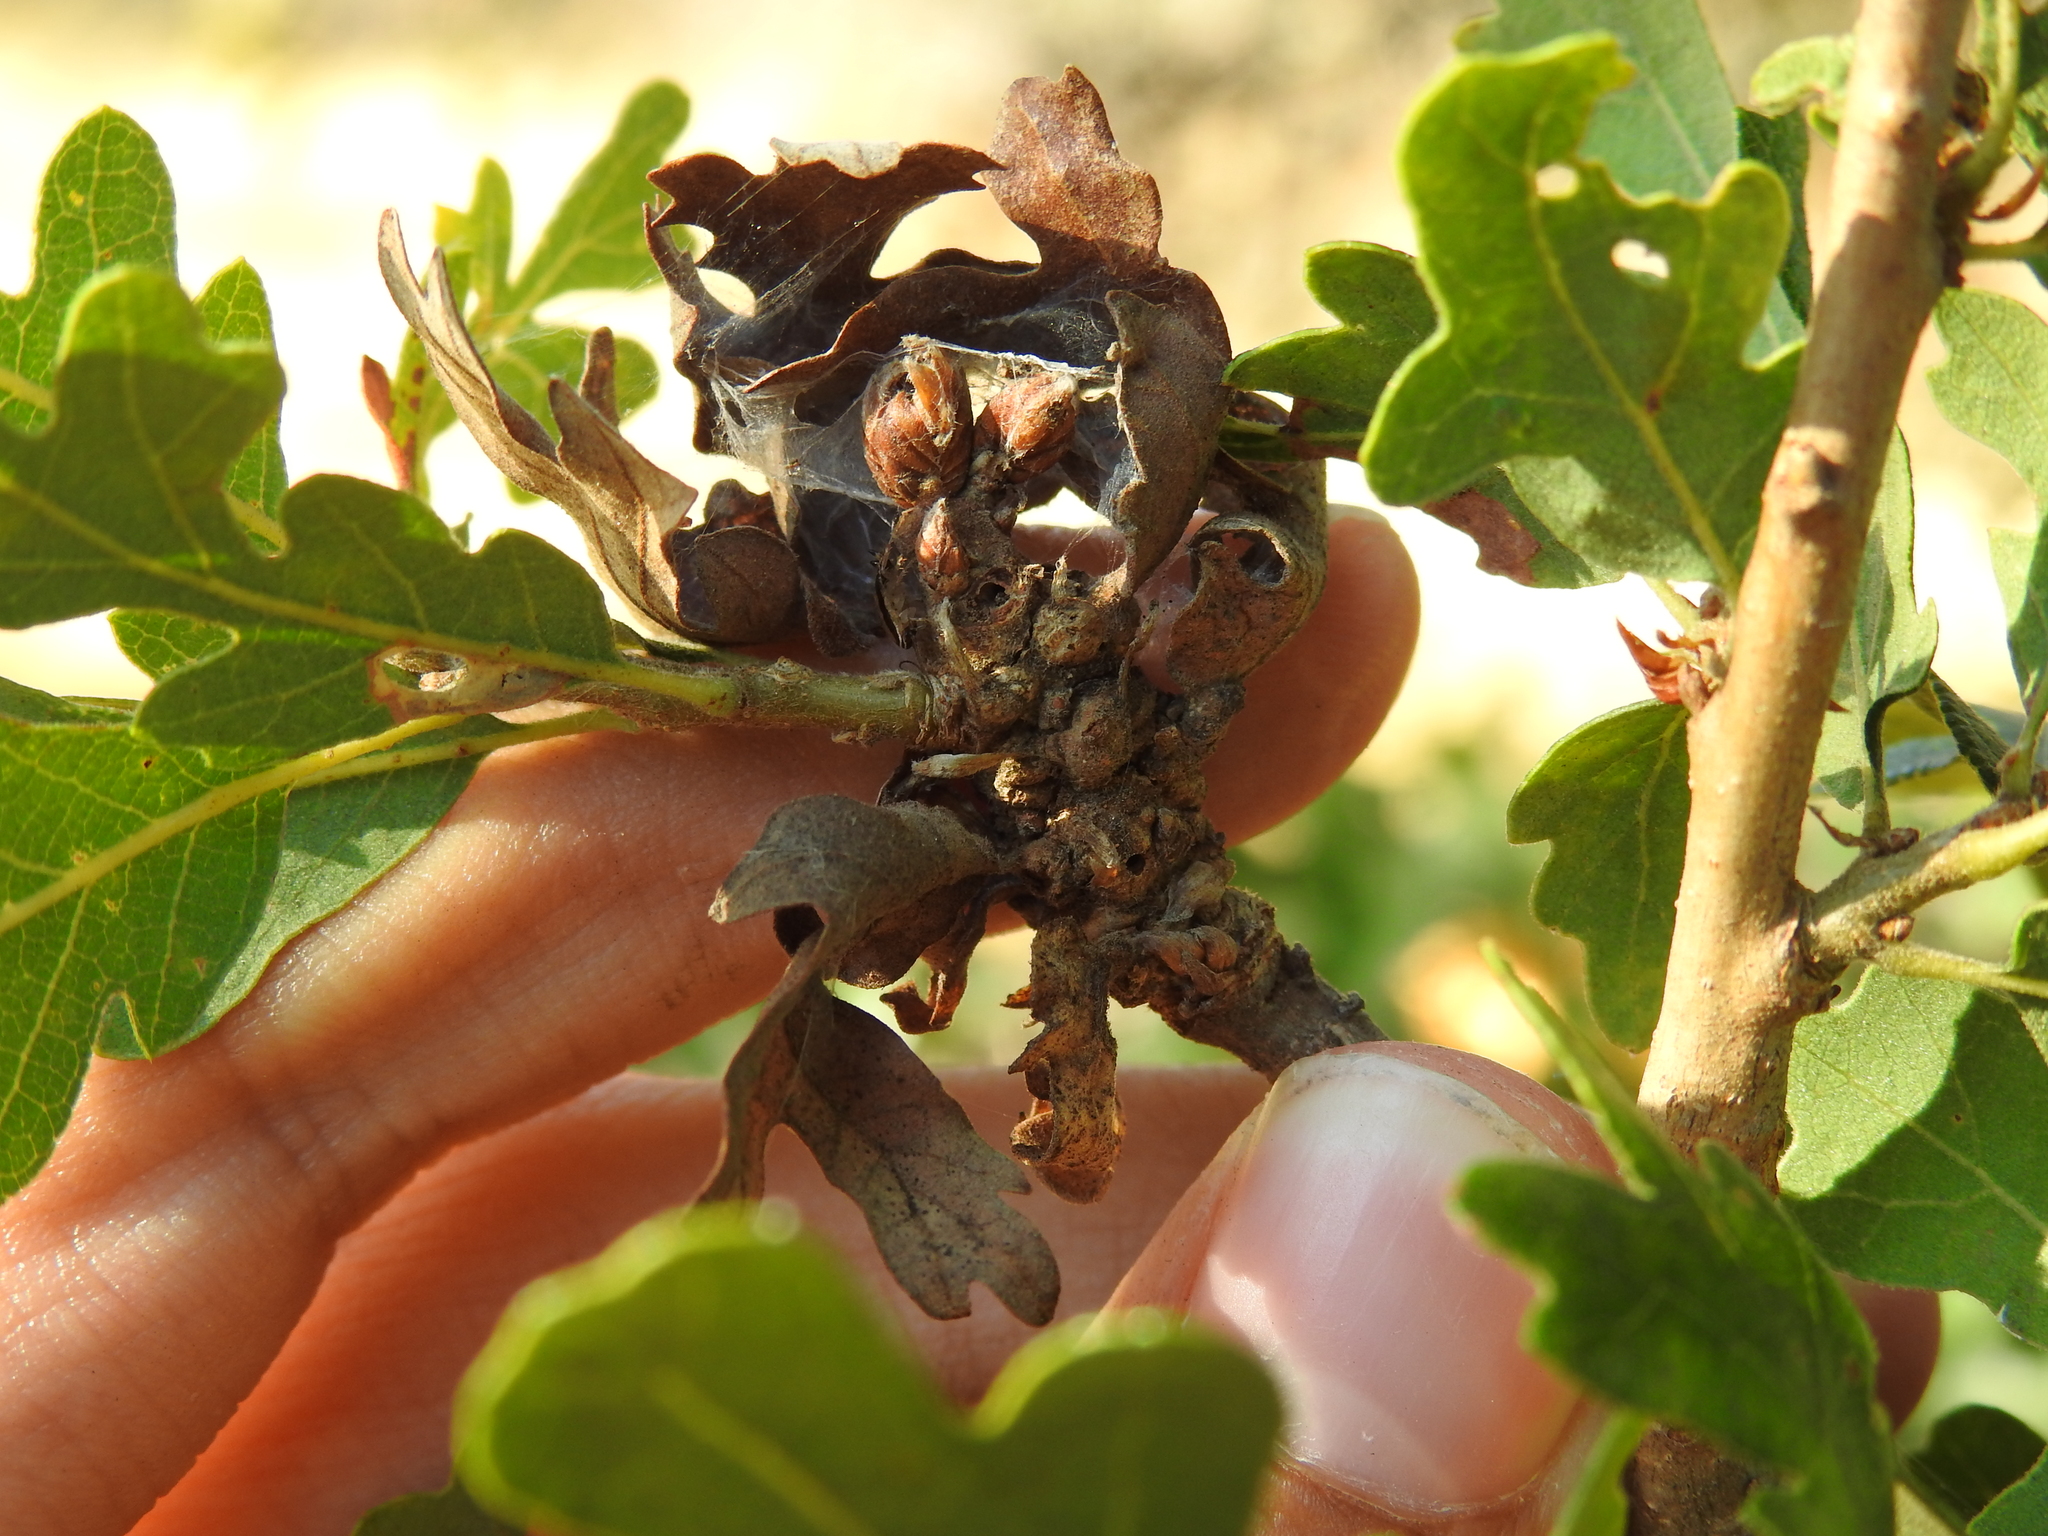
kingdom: Animalia
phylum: Arthropoda
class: Insecta
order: Hymenoptera
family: Cynipidae
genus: Neuroterus
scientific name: Neuroterus
